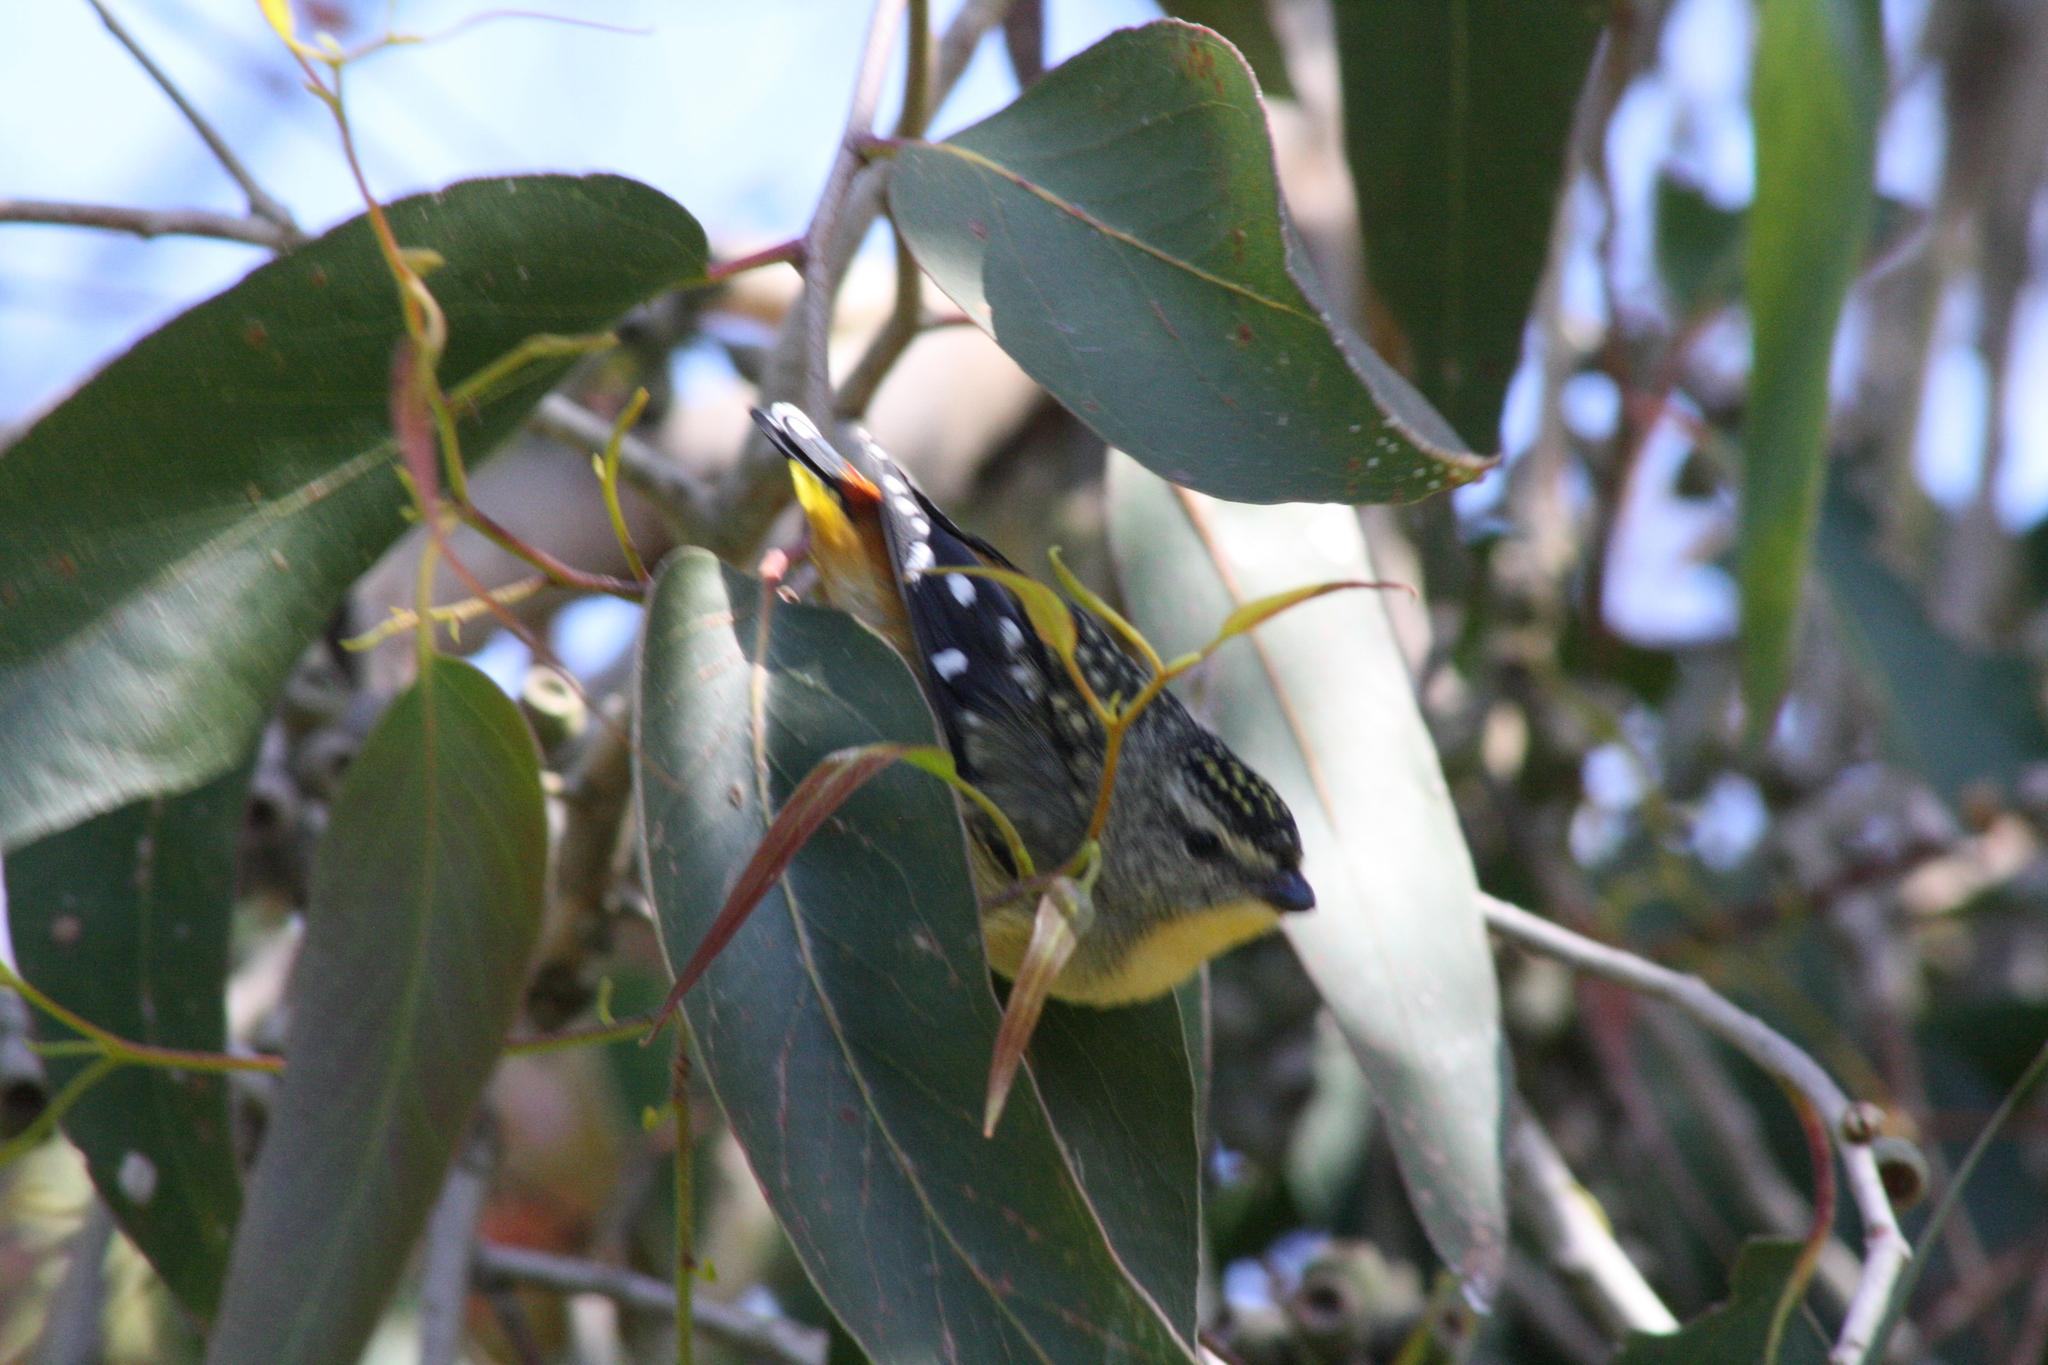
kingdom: Animalia
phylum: Chordata
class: Aves
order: Passeriformes
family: Pardalotidae
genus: Pardalotus
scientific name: Pardalotus punctatus
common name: Spotted pardalote
